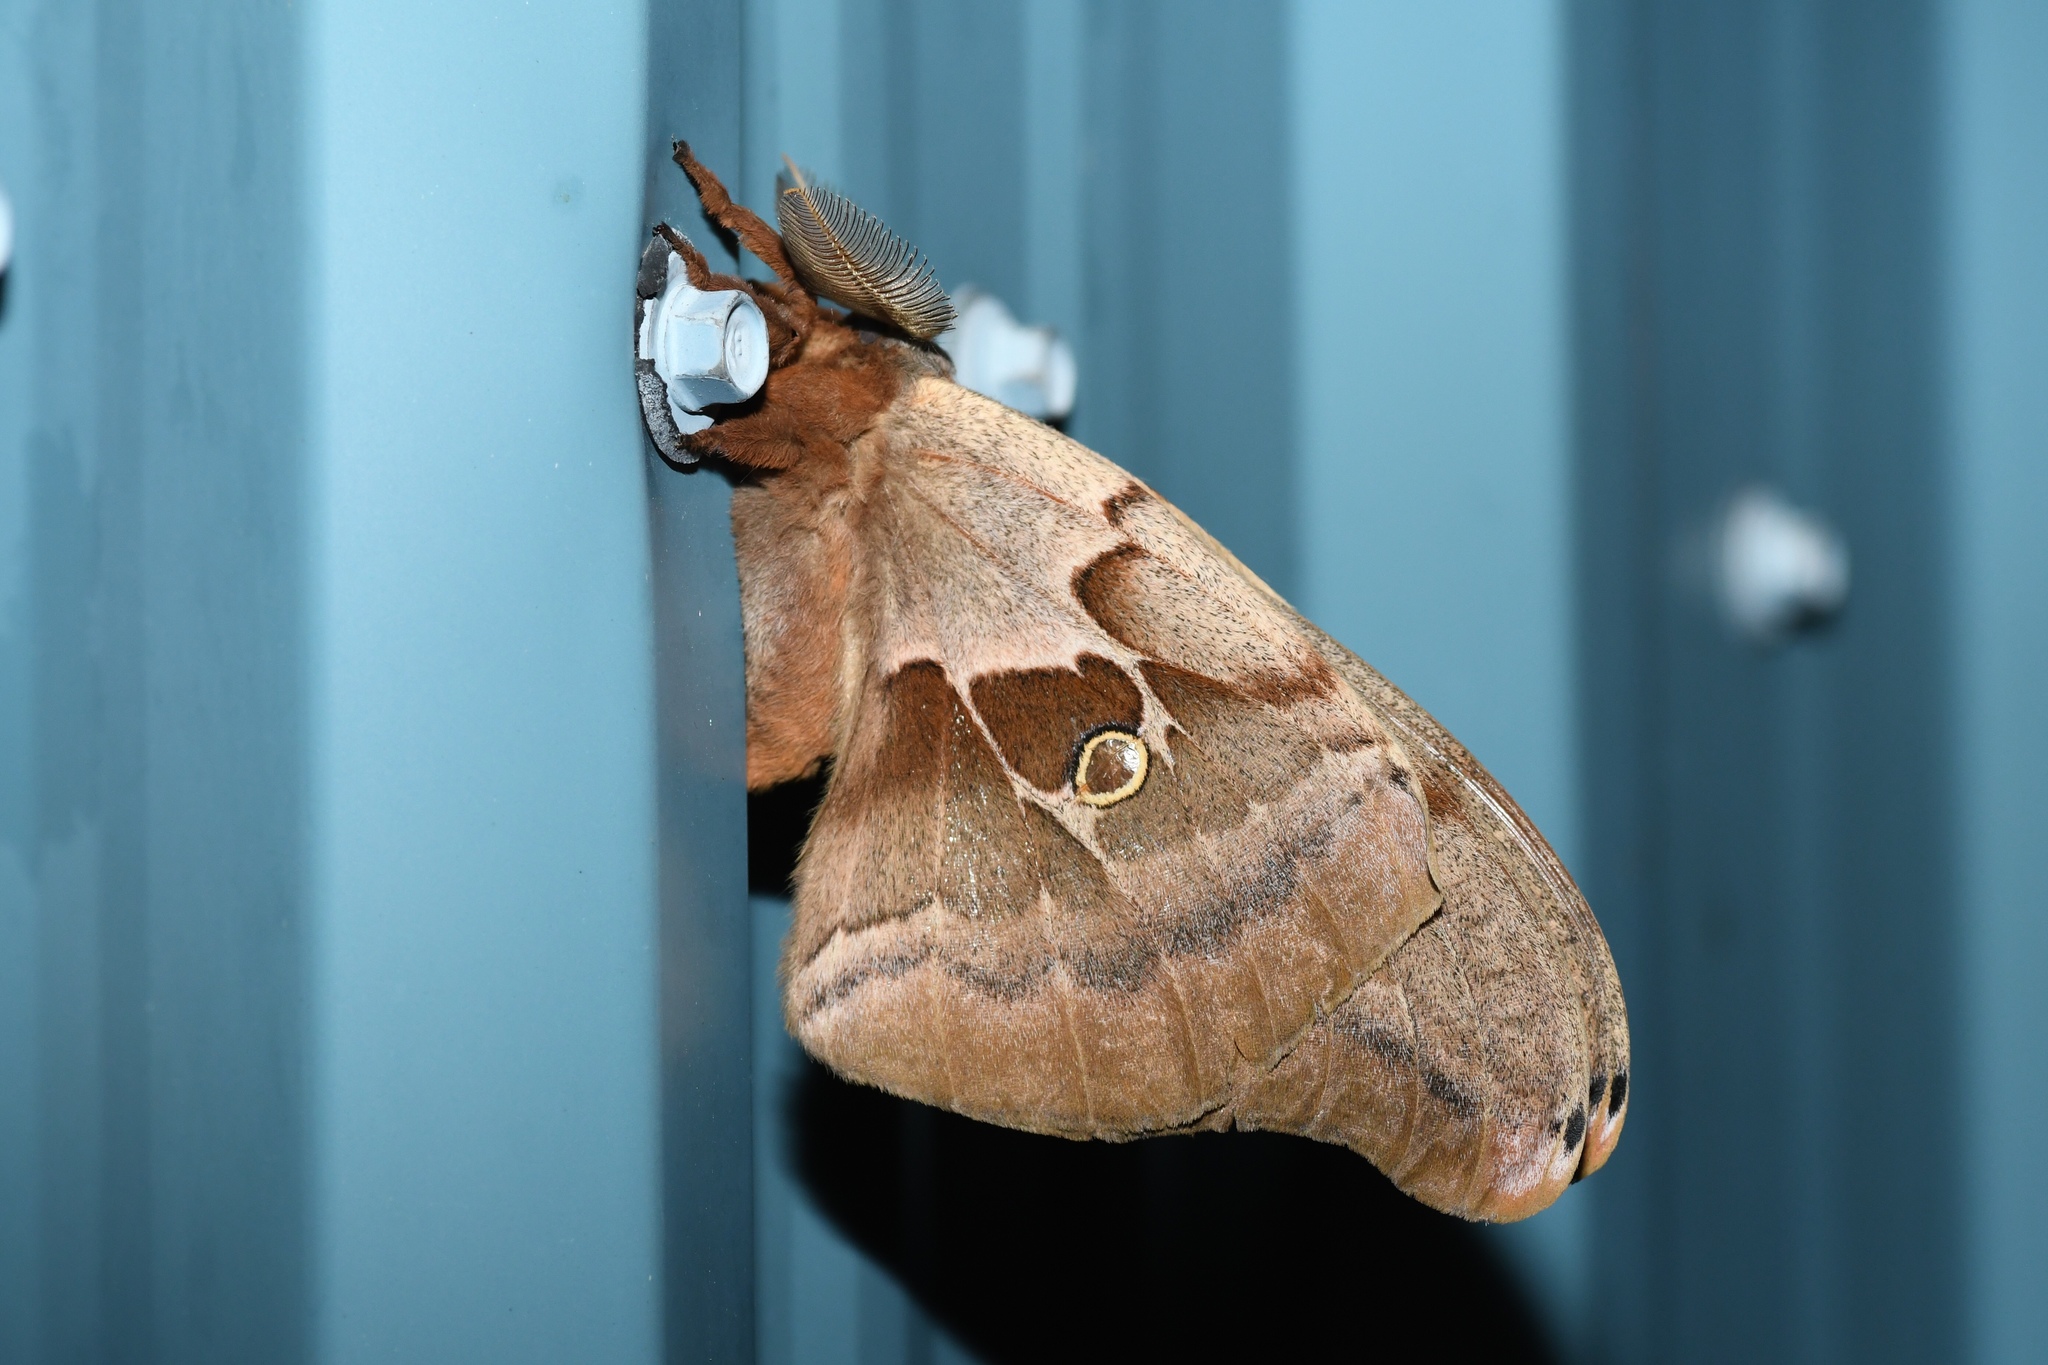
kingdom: Animalia
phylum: Arthropoda
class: Insecta
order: Lepidoptera
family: Saturniidae
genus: Antheraea
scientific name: Antheraea polyphemus
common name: Polyphemus moth
